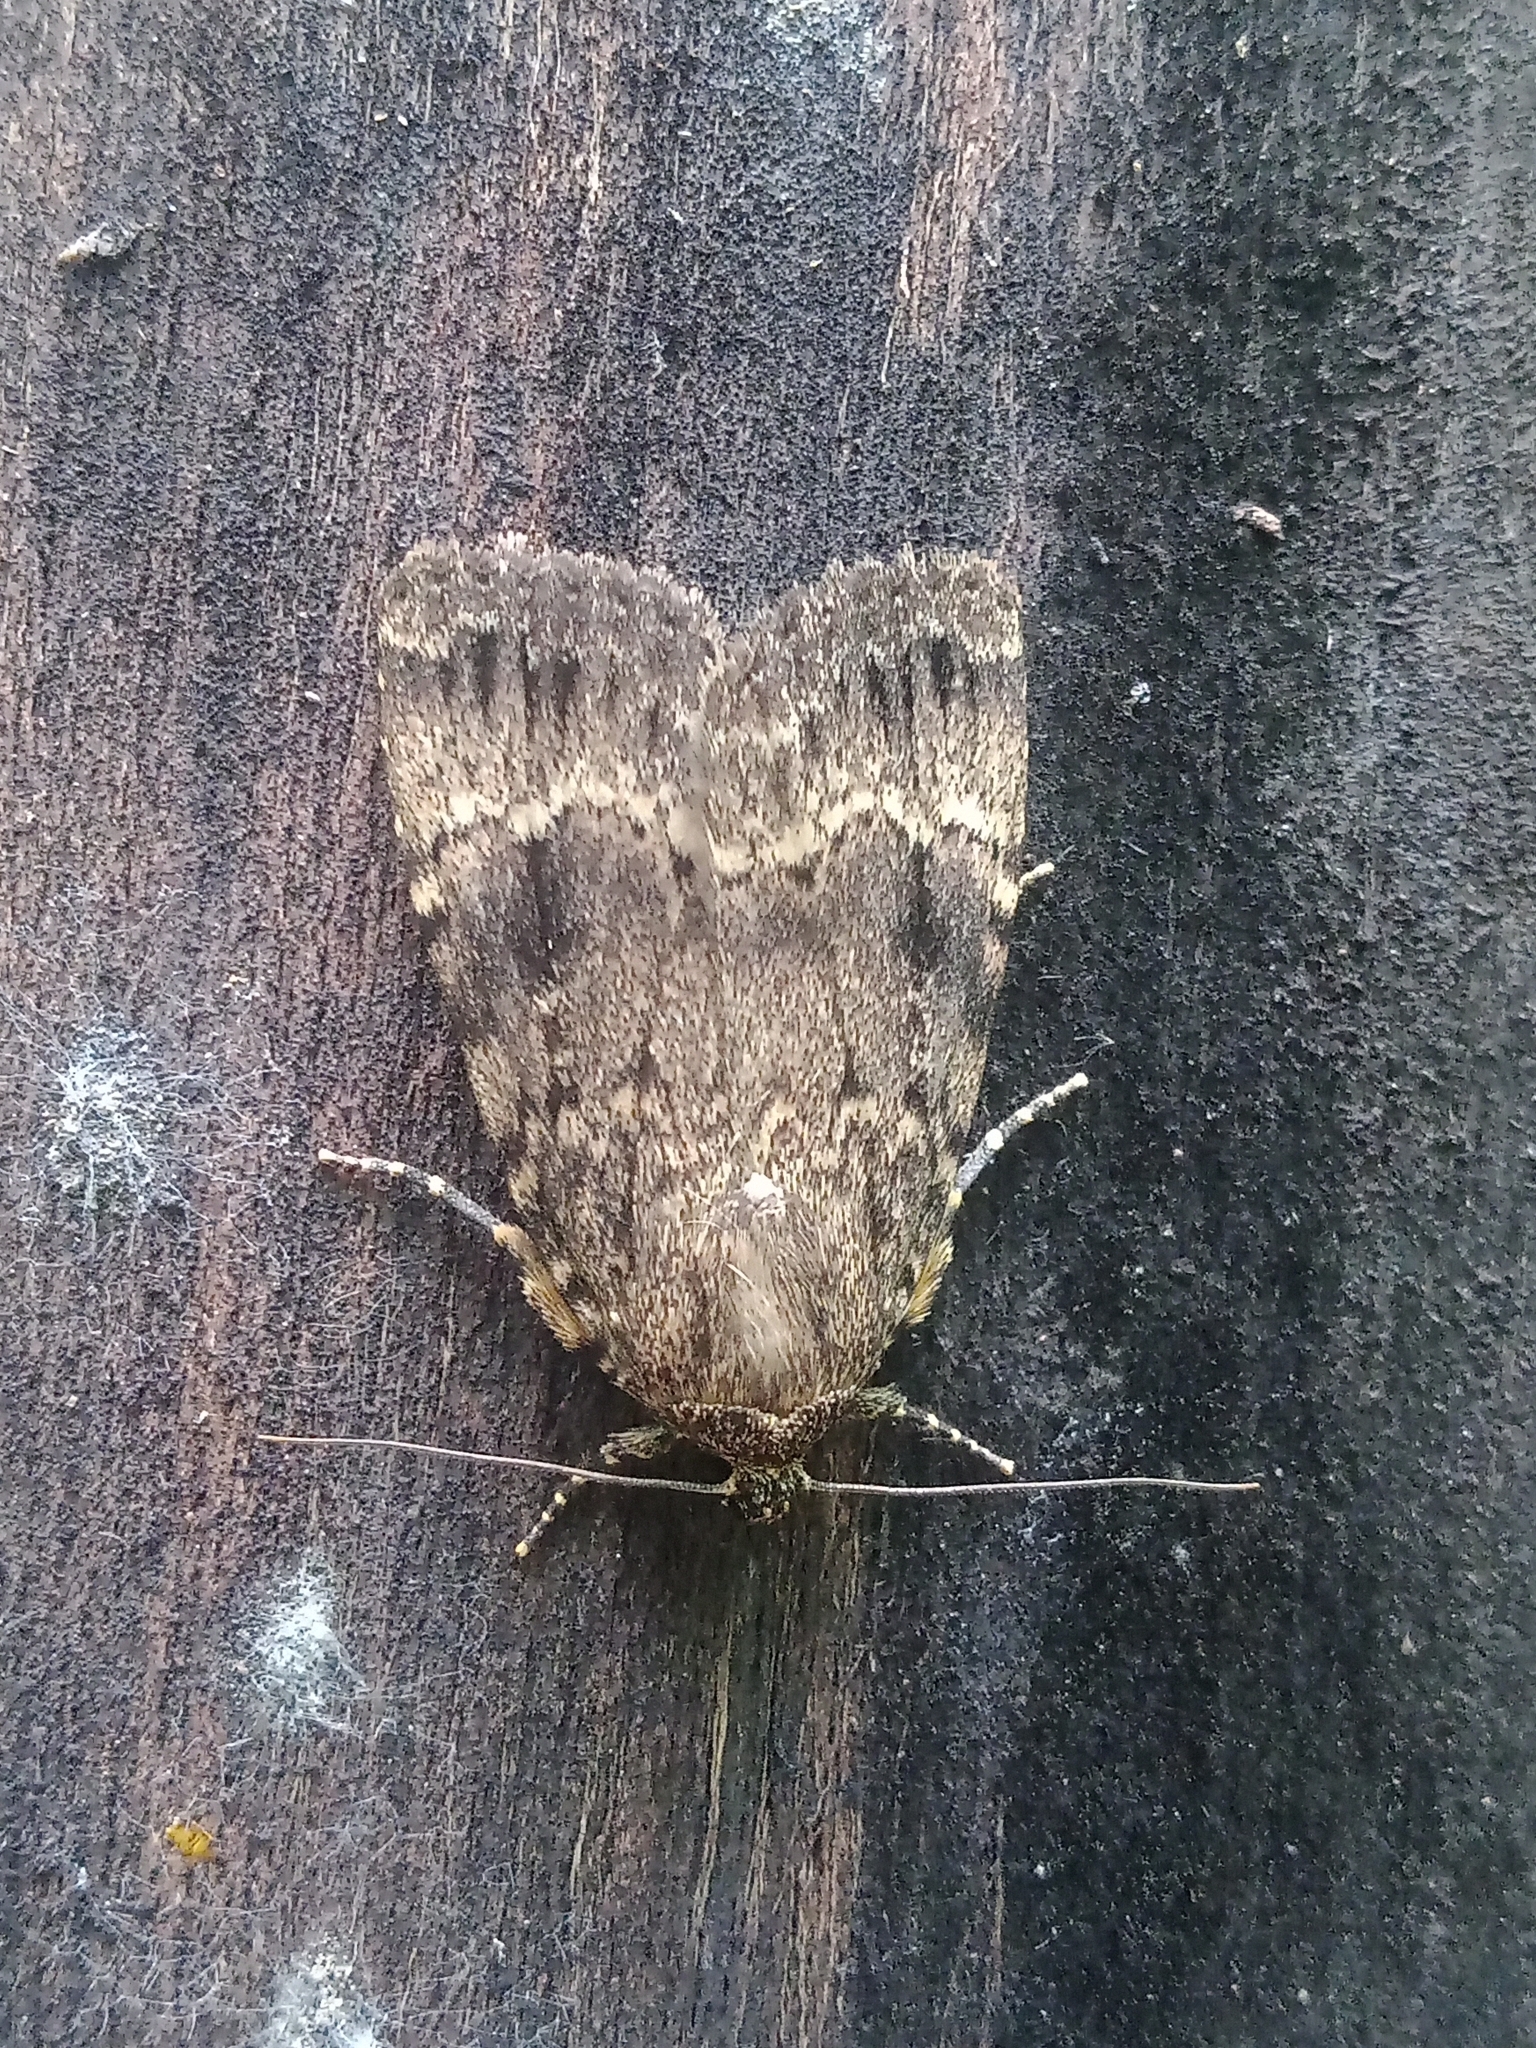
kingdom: Animalia
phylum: Arthropoda
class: Insecta
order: Lepidoptera
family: Noctuidae
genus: Amphipyra
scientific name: Amphipyra
